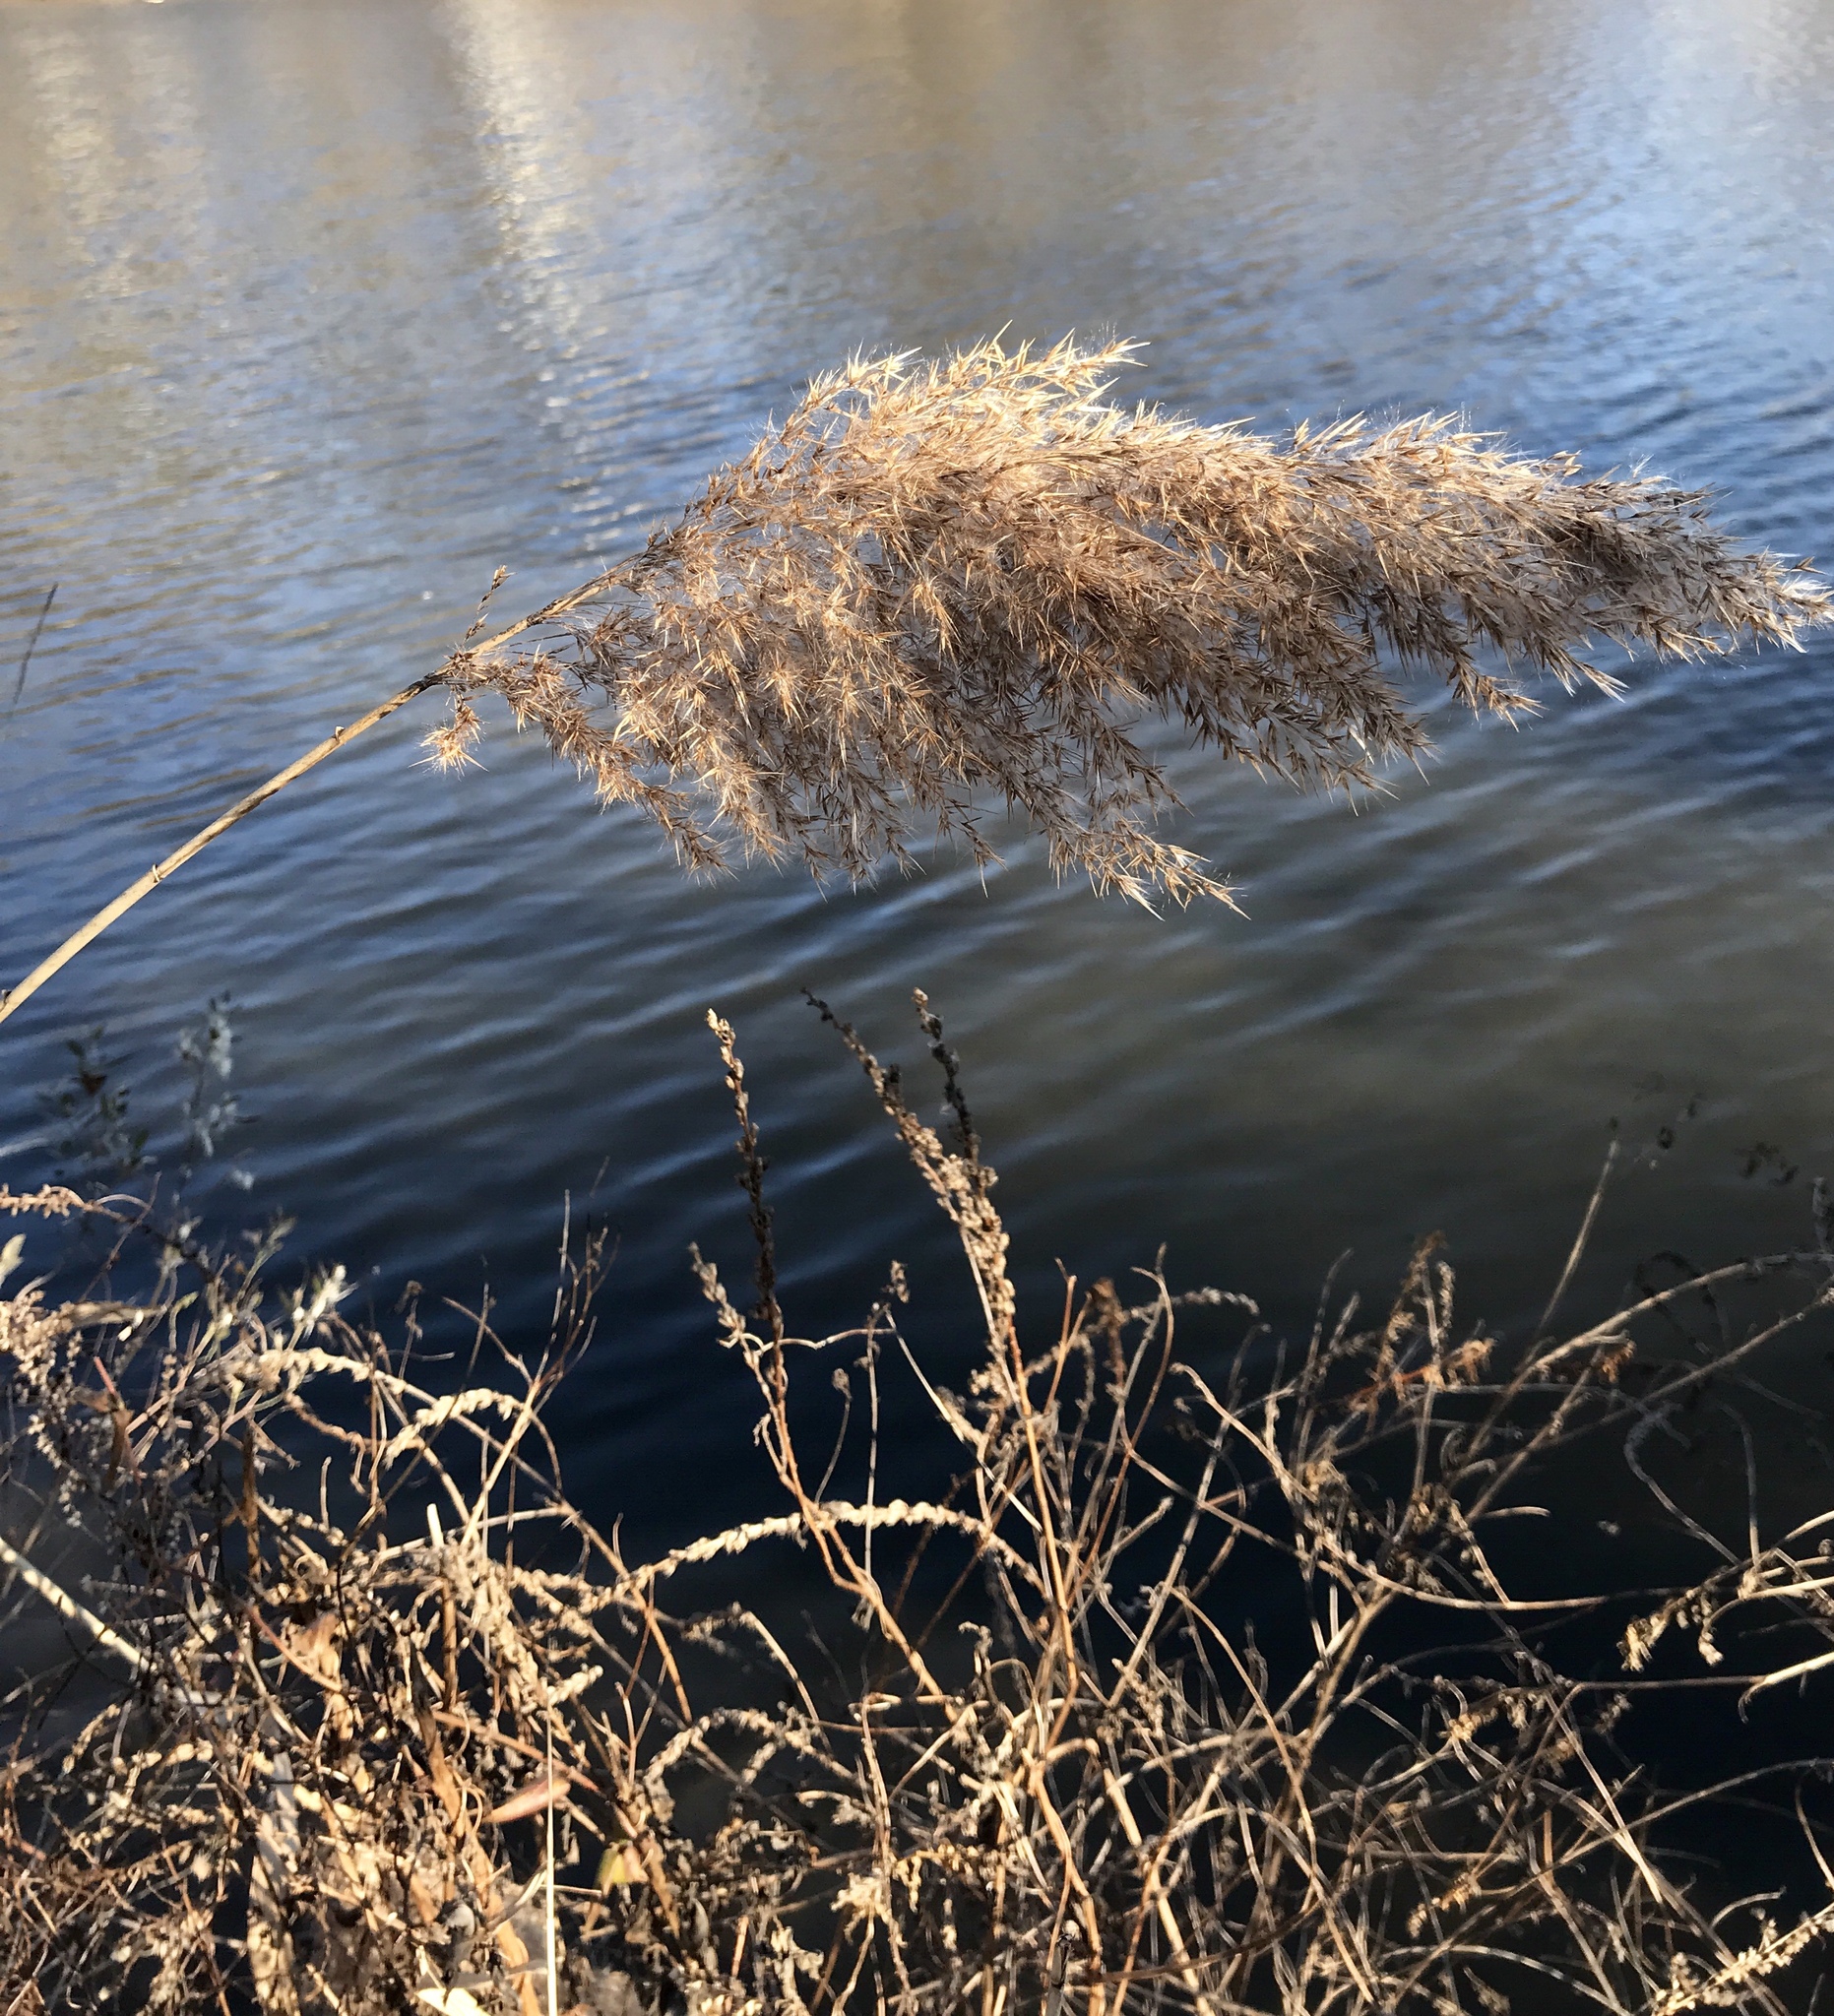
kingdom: Plantae
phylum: Tracheophyta
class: Liliopsida
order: Poales
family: Poaceae
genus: Phragmites
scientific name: Phragmites australis
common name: Common reed
